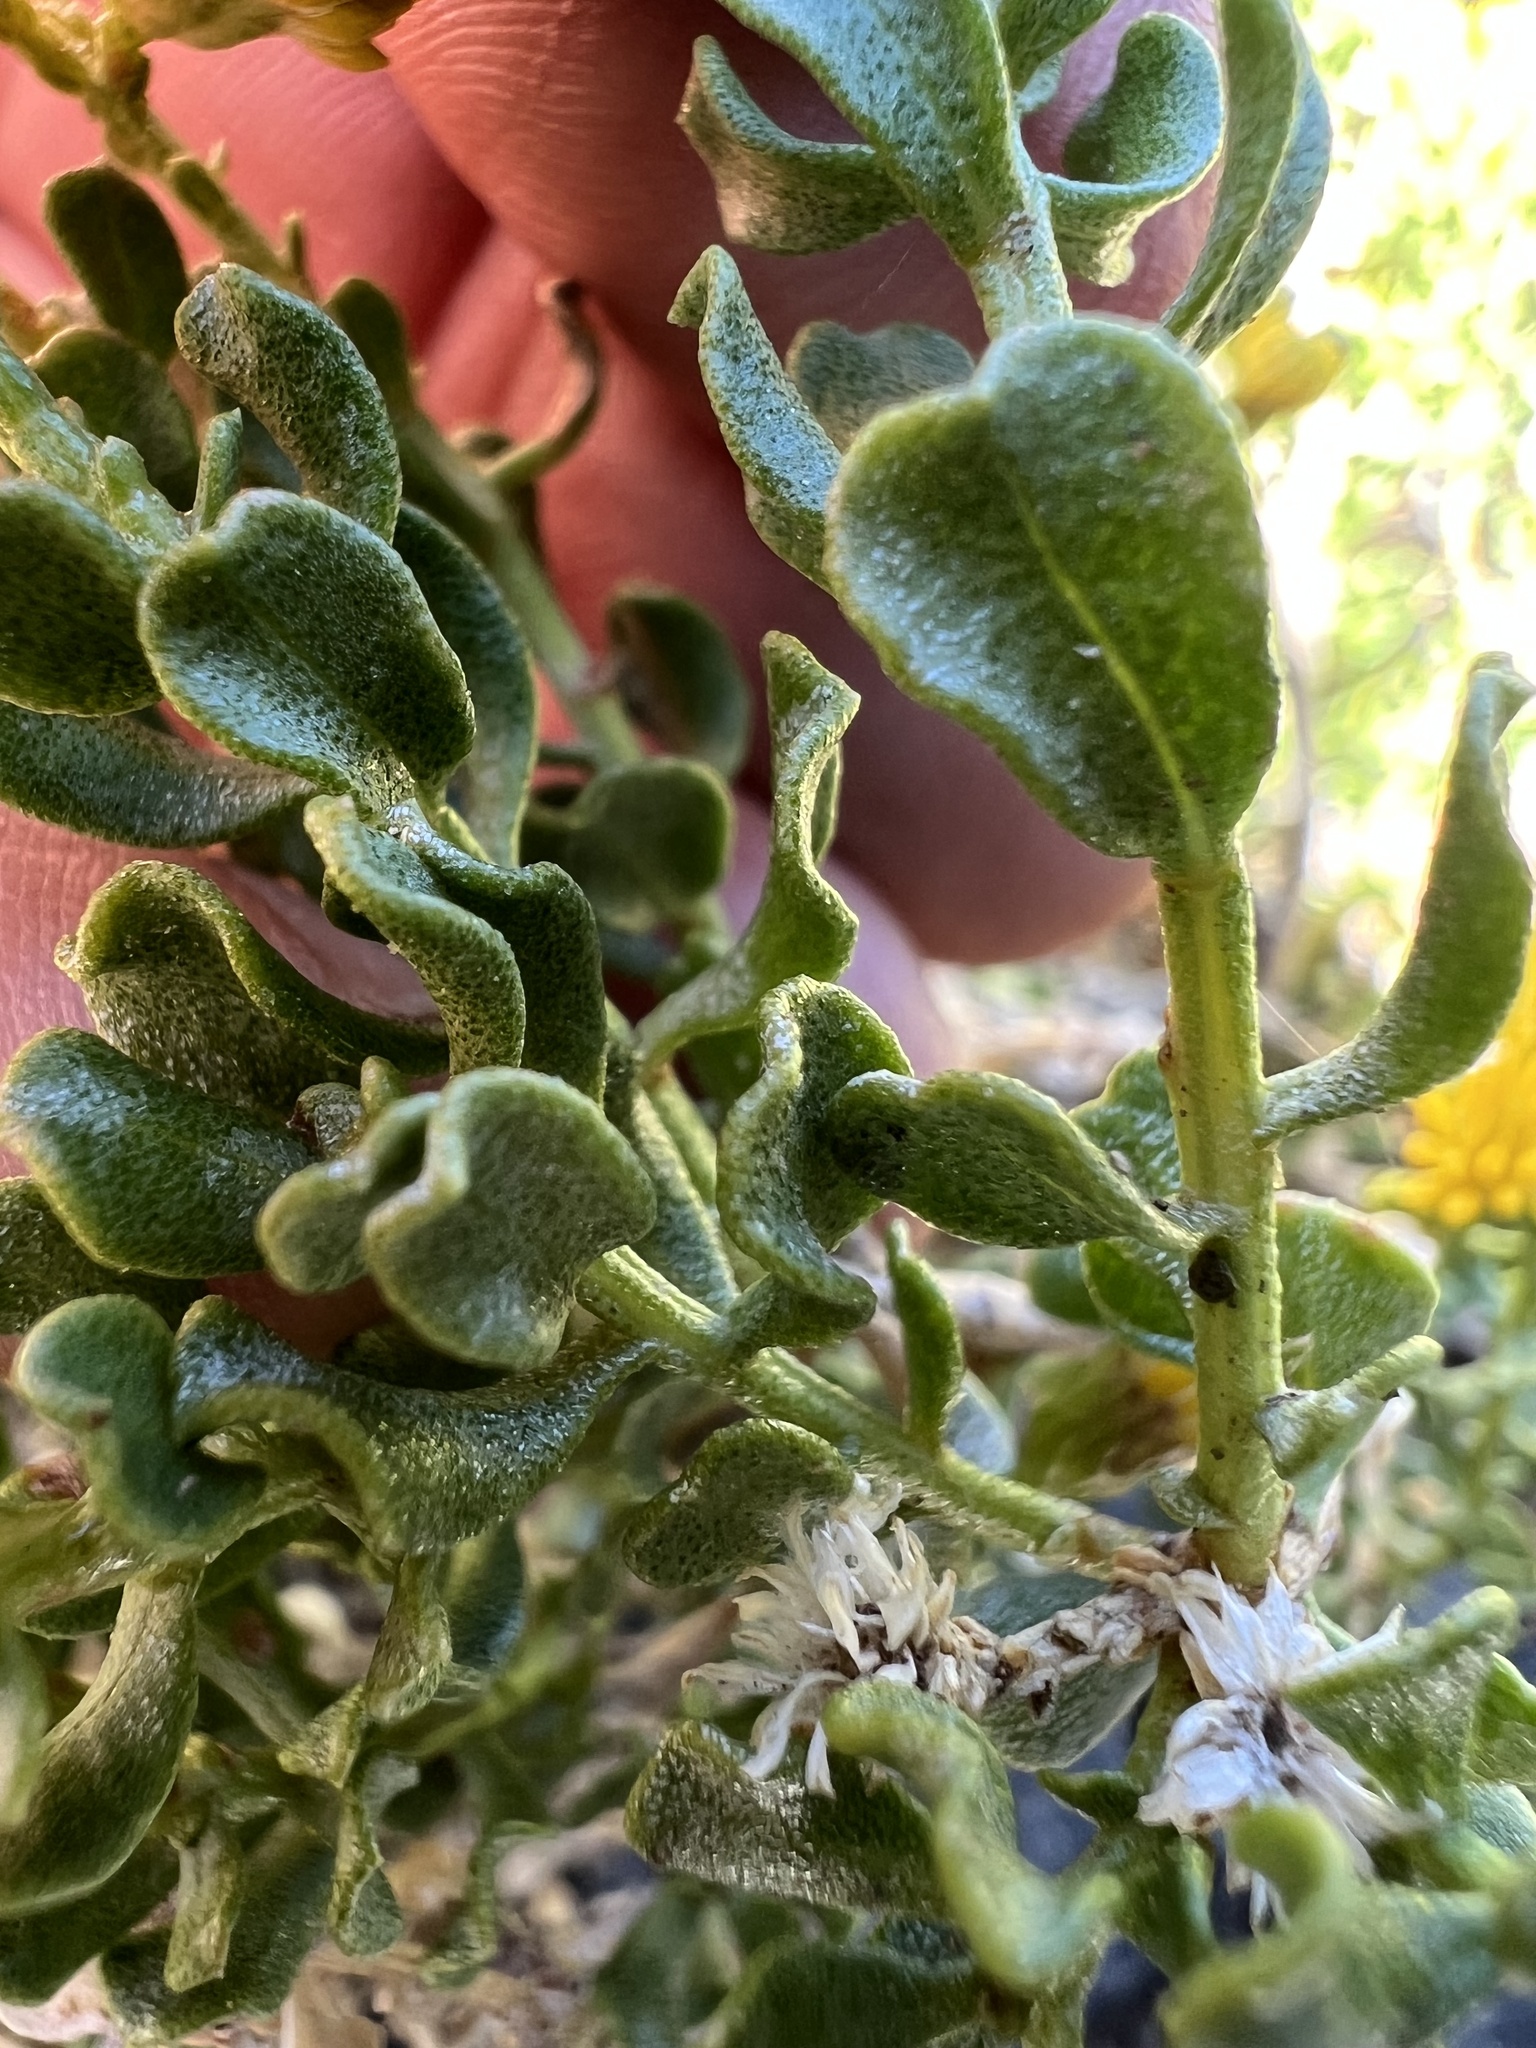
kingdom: Plantae
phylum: Tracheophyta
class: Magnoliopsida
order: Asterales
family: Asteraceae
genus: Ericameria
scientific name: Ericameria cuneata
